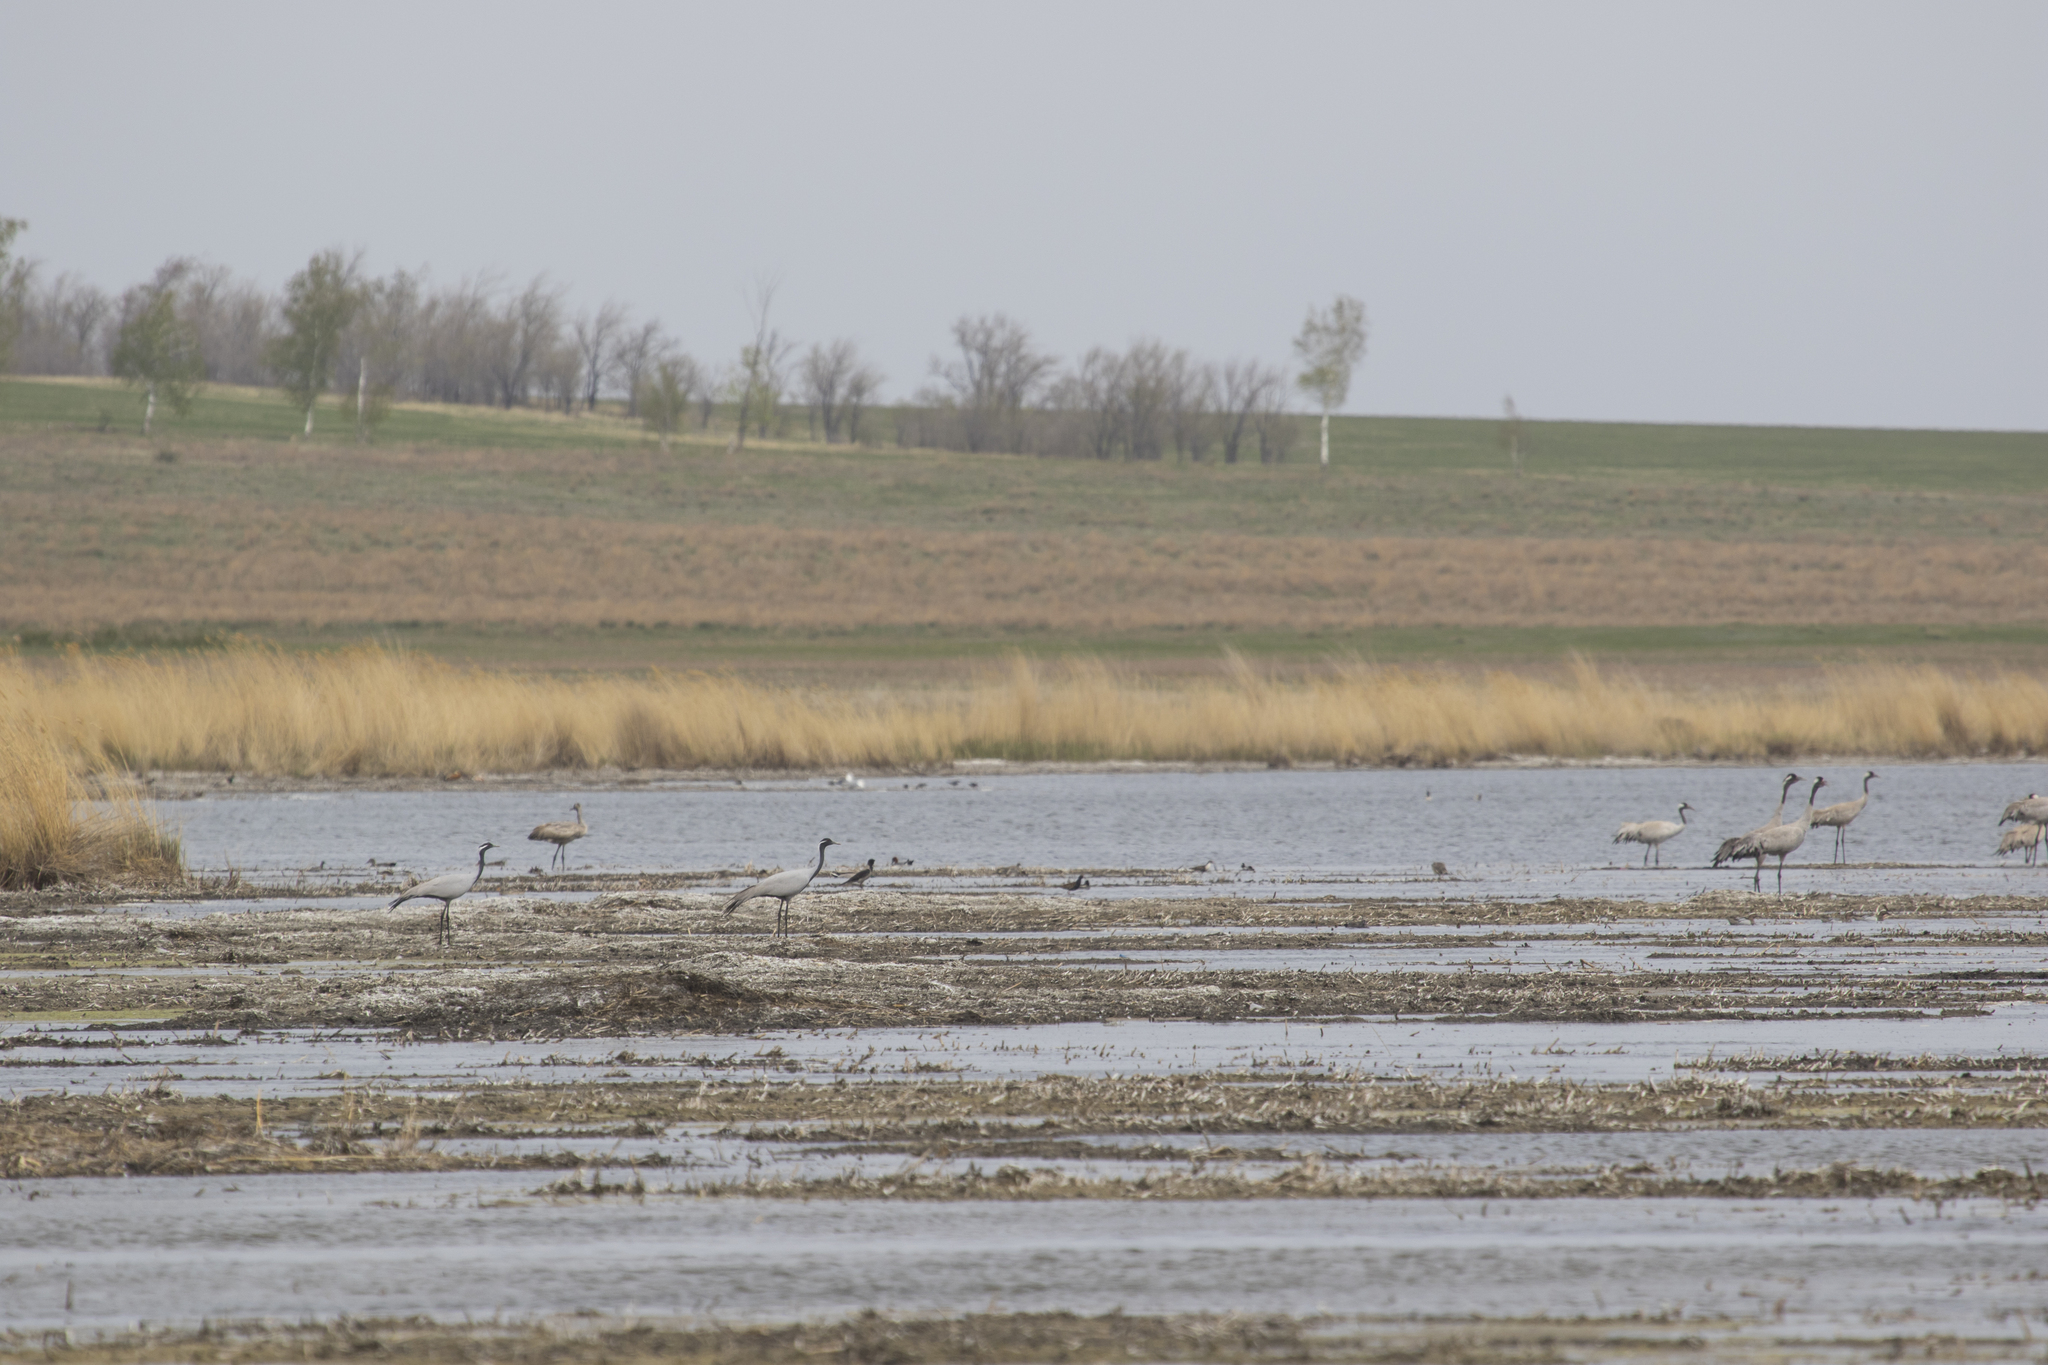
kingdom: Animalia
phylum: Chordata
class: Aves
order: Gruiformes
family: Gruidae
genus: Anthropoides
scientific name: Anthropoides virgo
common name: Demoiselle crane
